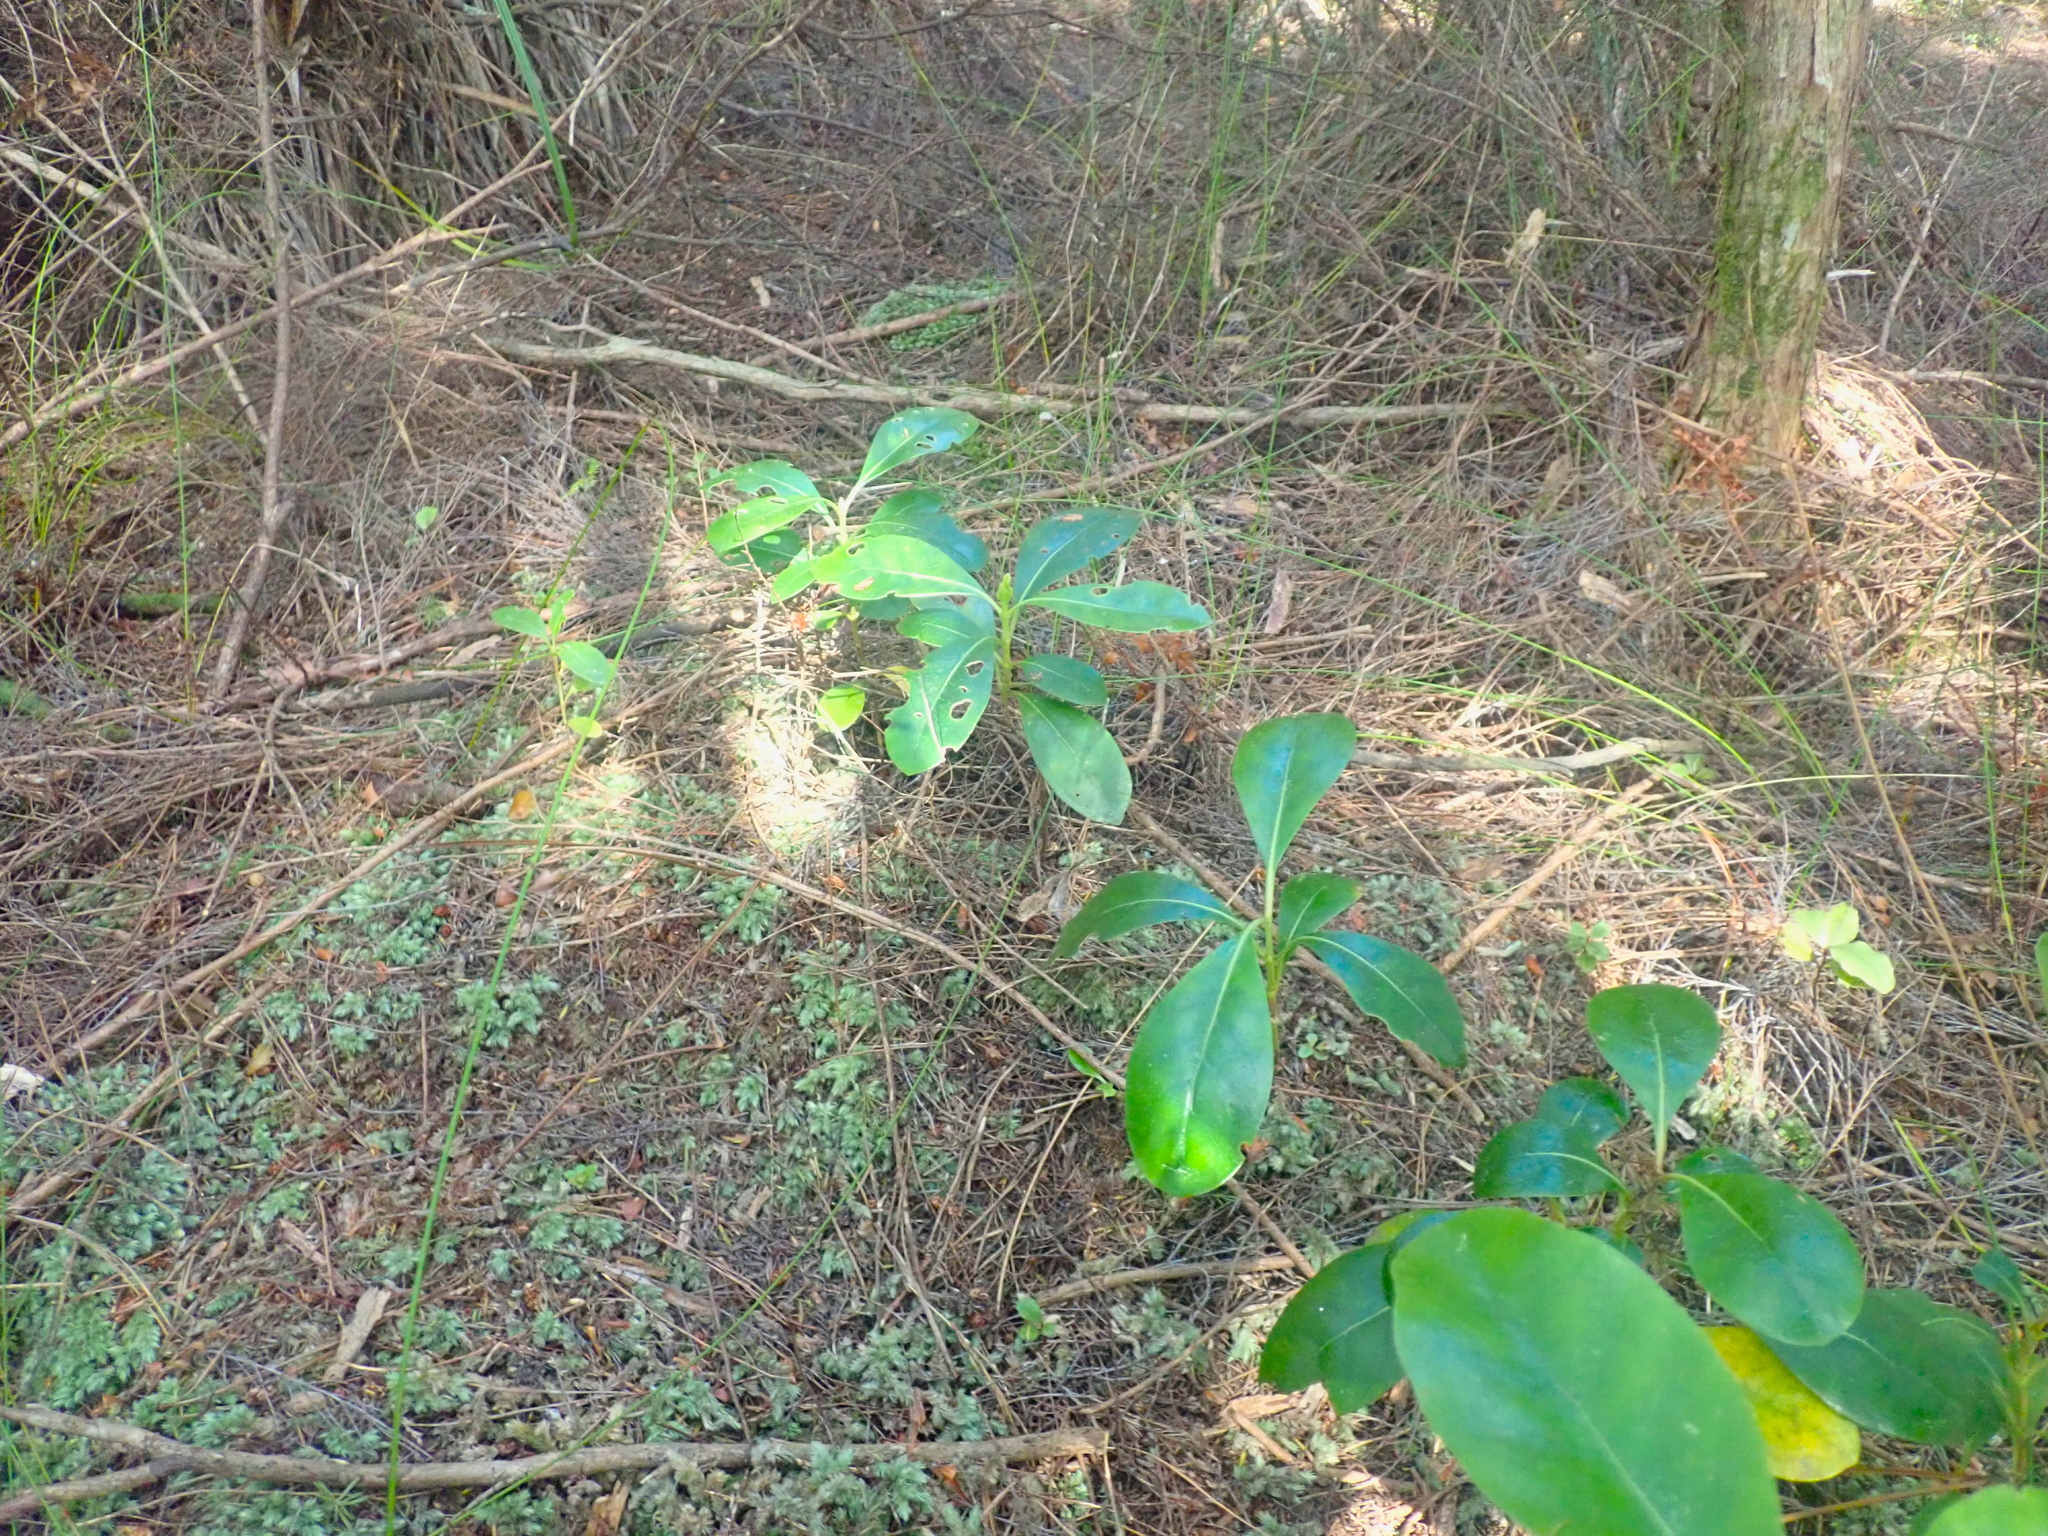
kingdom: Plantae
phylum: Tracheophyta
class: Magnoliopsida
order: Gentianales
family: Rubiaceae
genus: Coprosma
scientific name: Coprosma lucida
